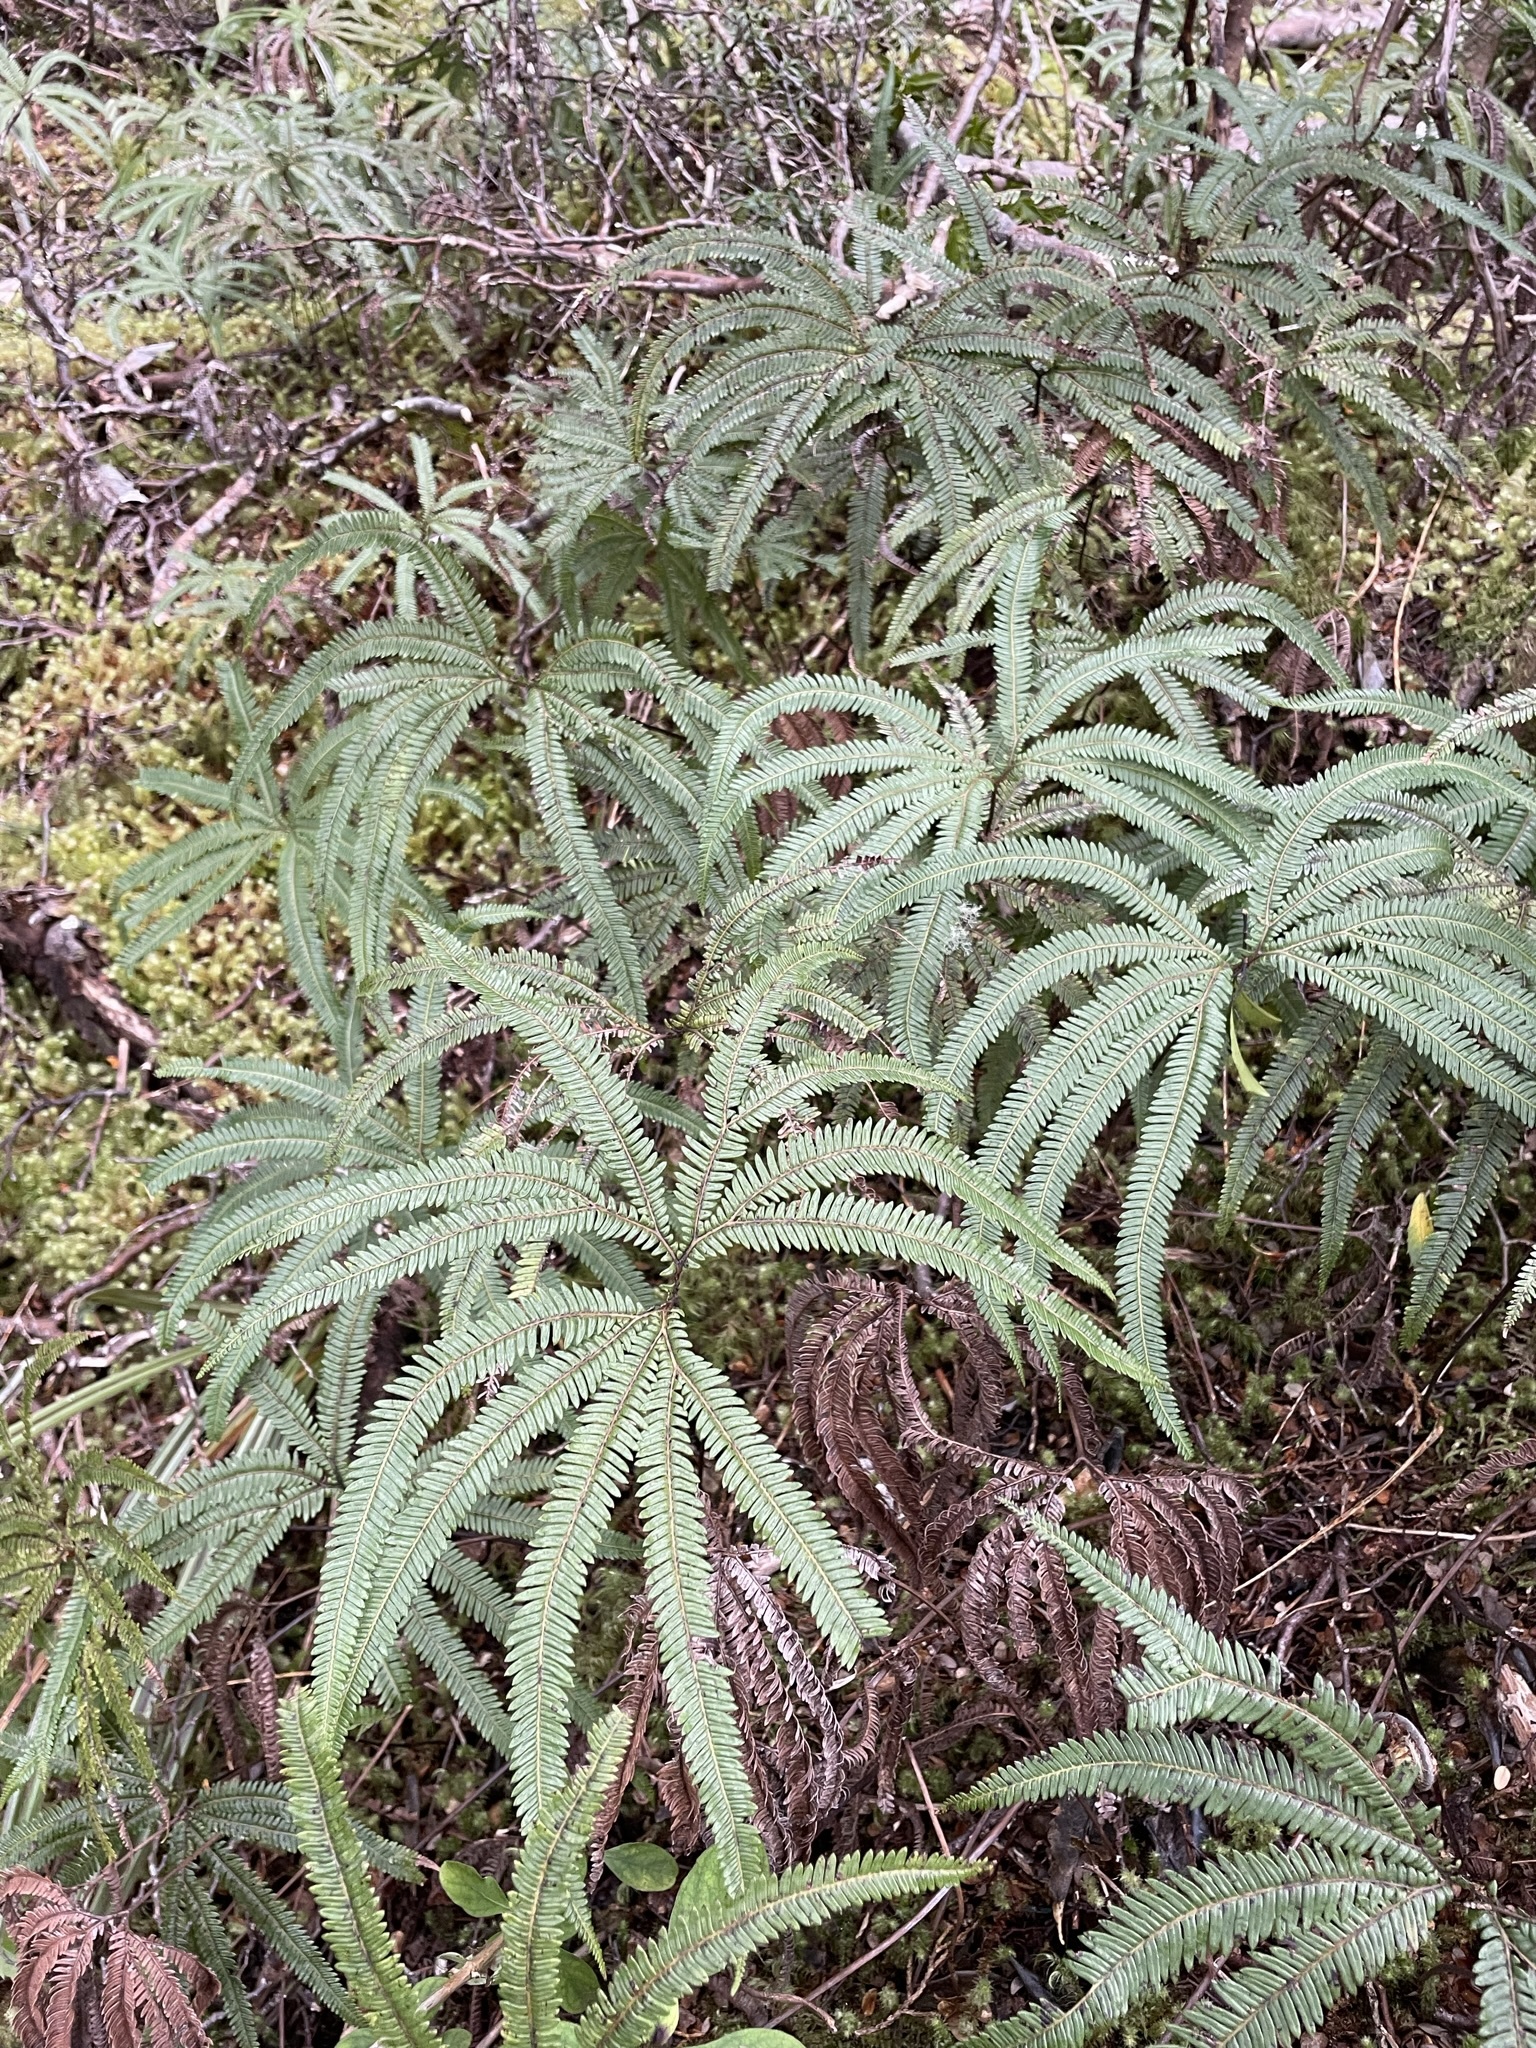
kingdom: Plantae
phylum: Tracheophyta
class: Polypodiopsida
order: Gleicheniales
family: Gleicheniaceae
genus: Sticherus
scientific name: Sticherus cunninghamii
